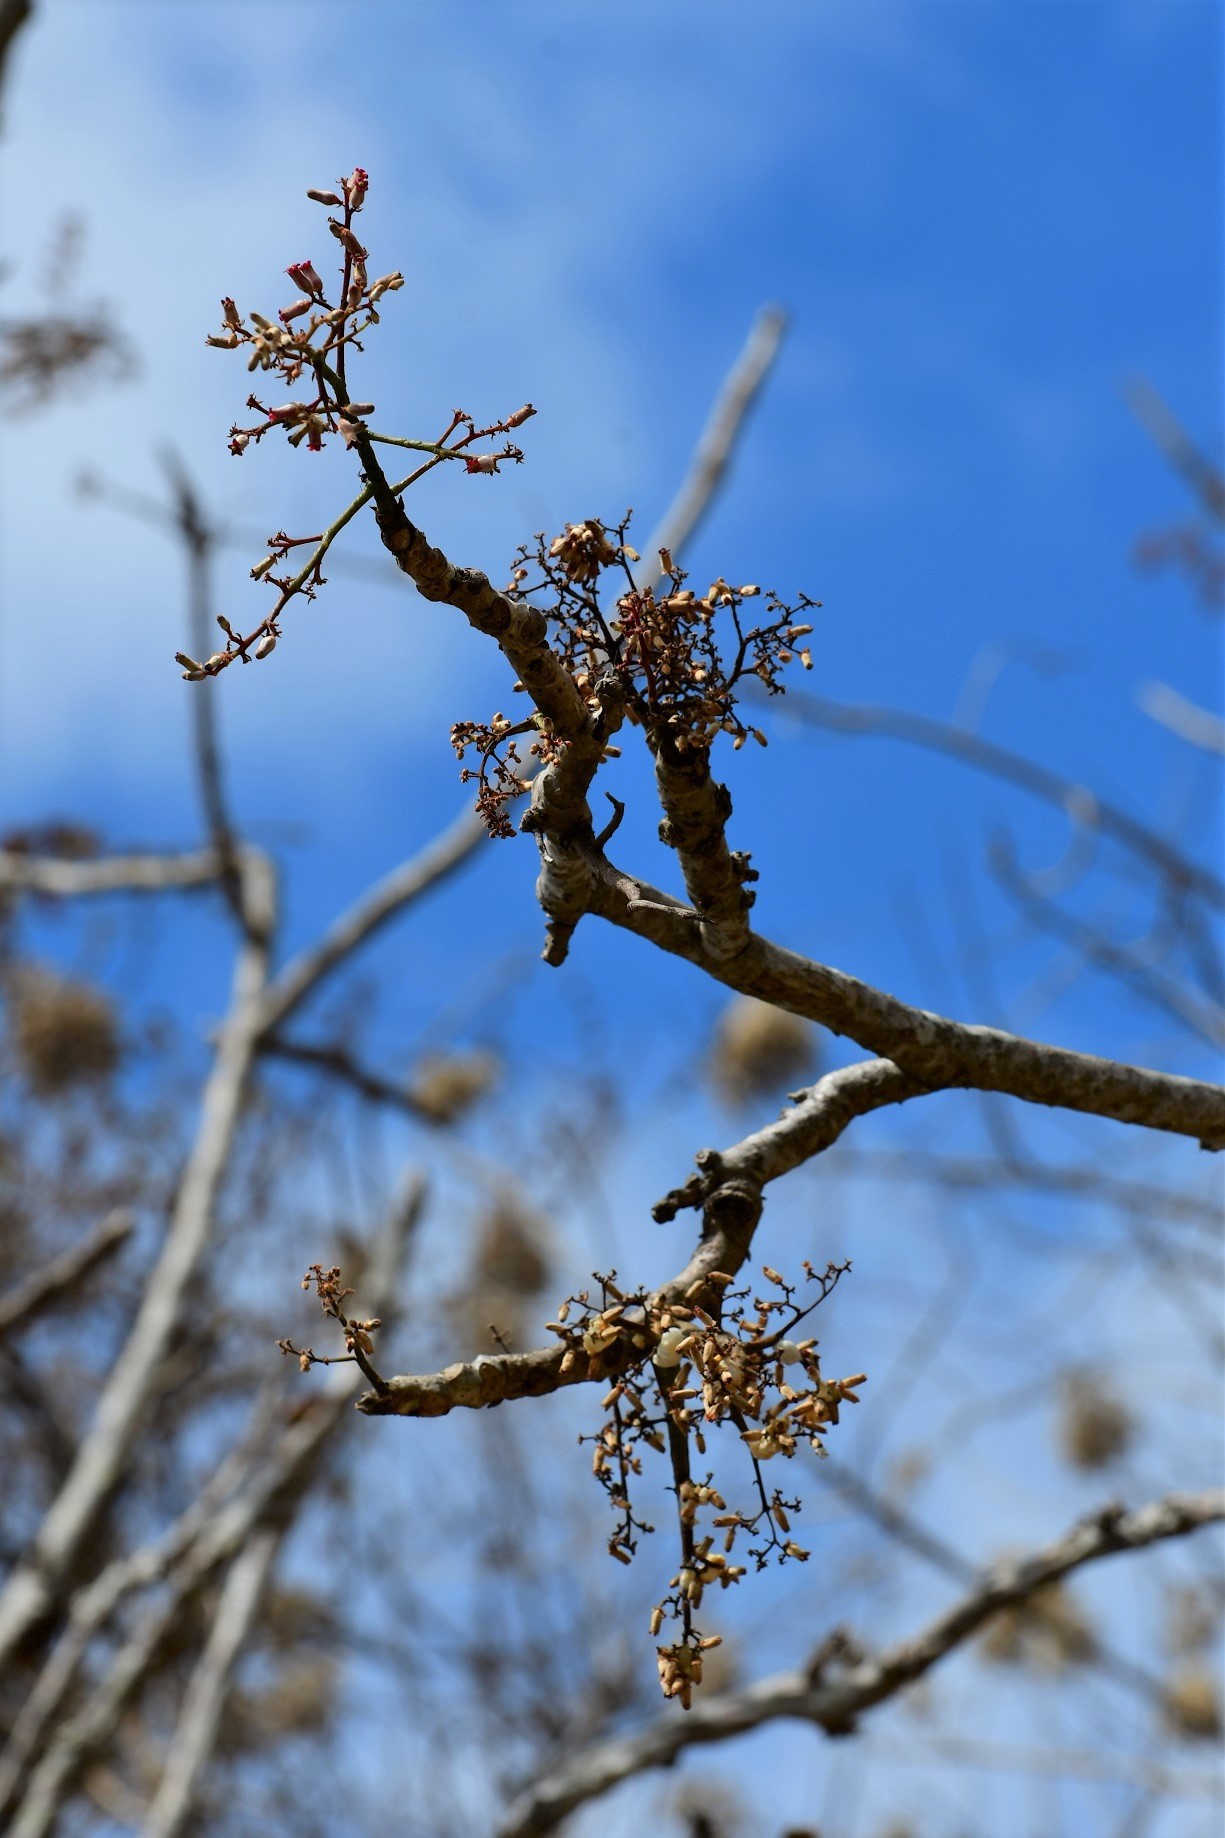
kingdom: Plantae
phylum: Tracheophyta
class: Magnoliopsida
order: Sapindales
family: Meliaceae
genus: Cedrela
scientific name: Cedrela salvadorensis
